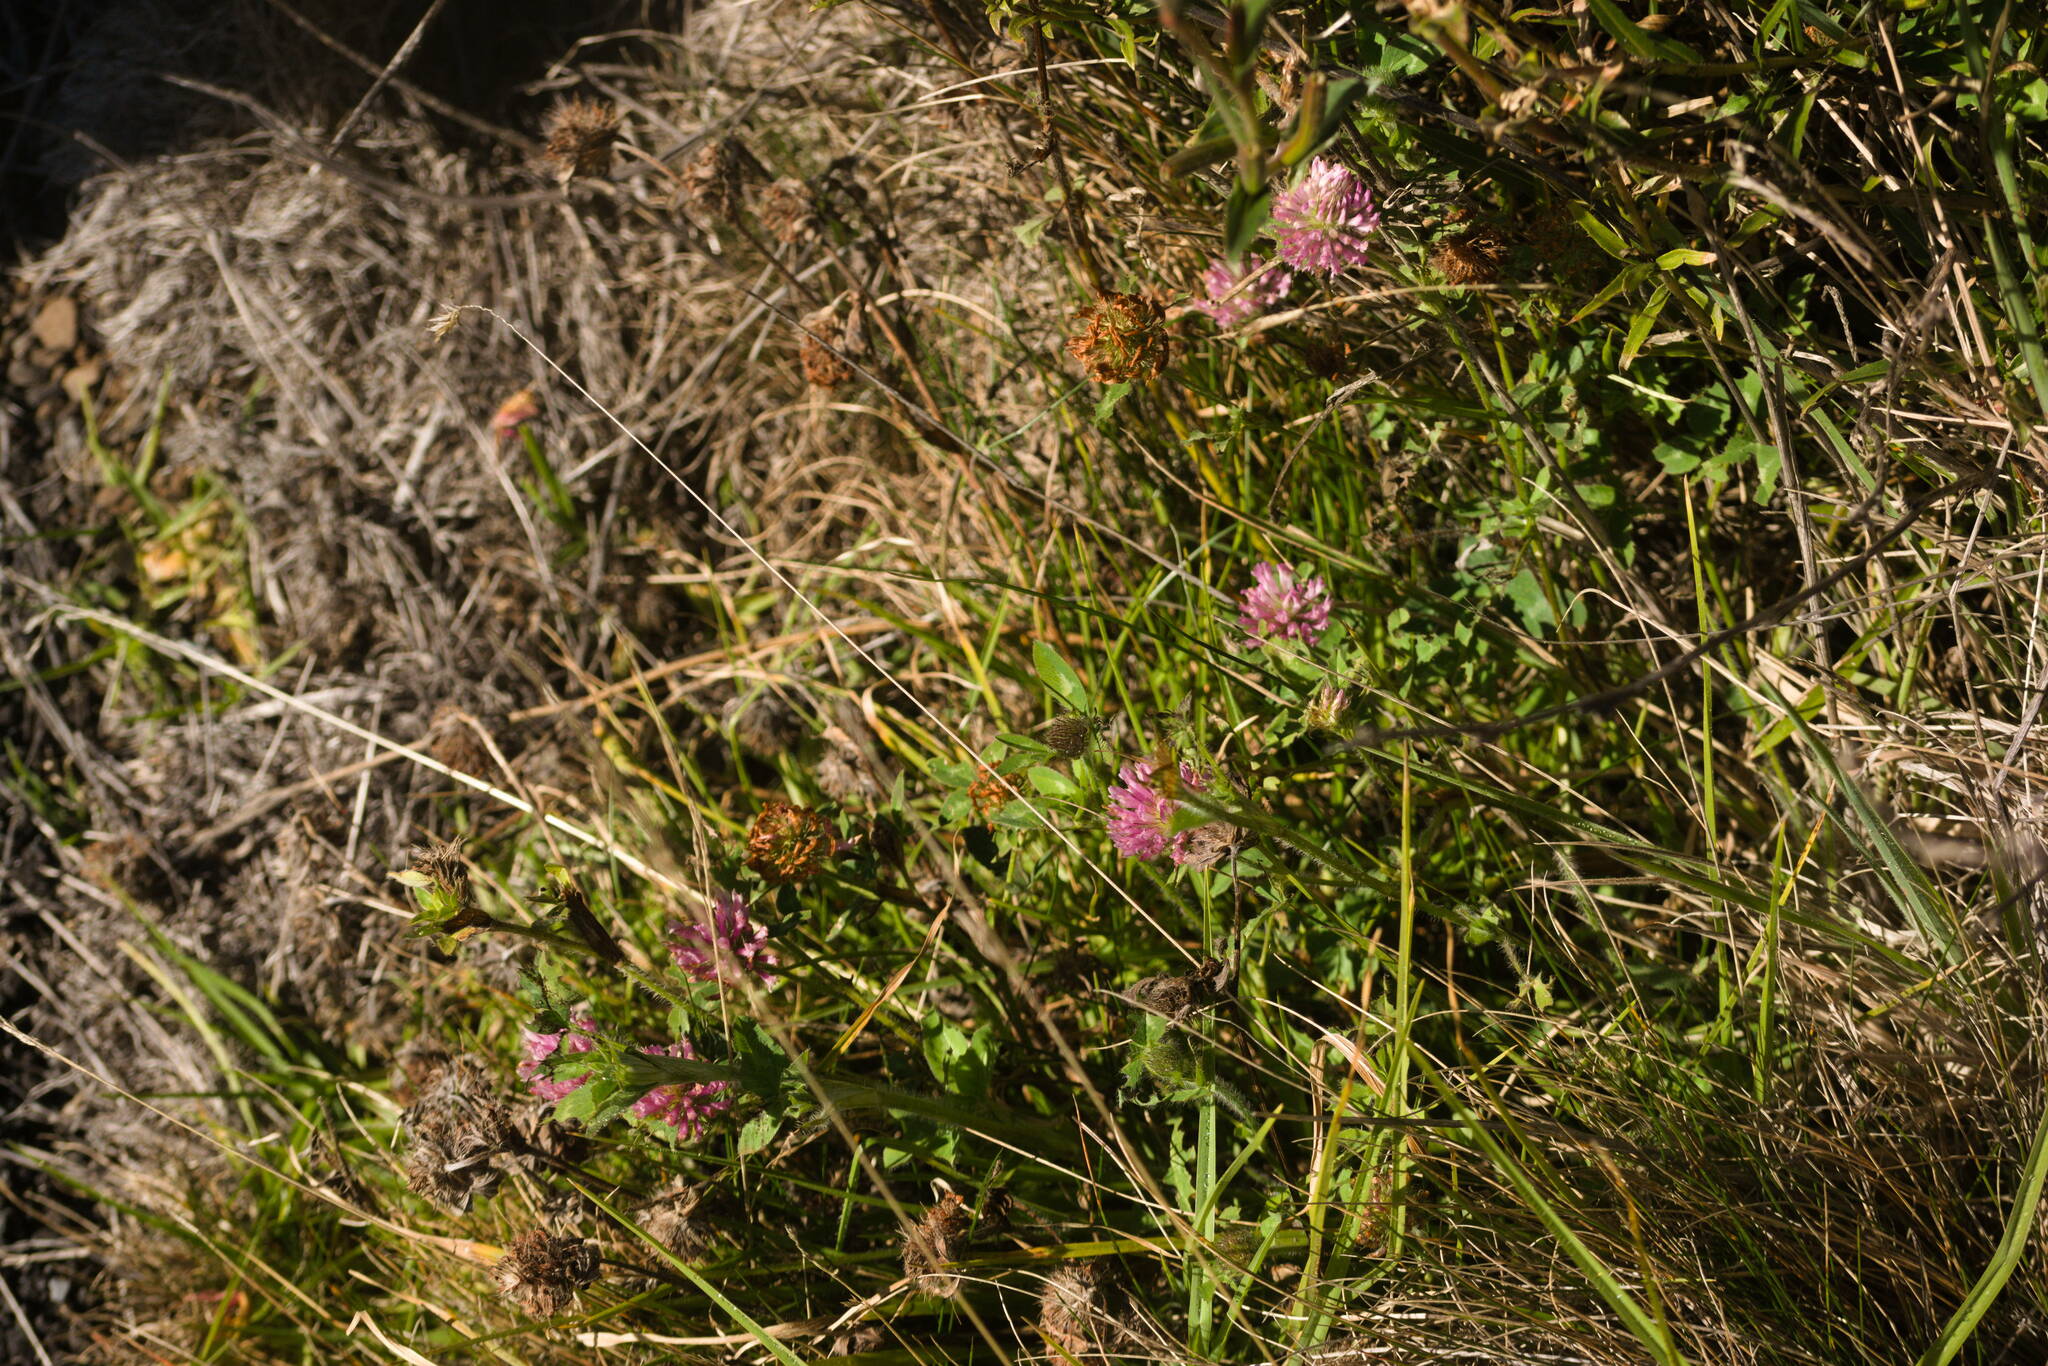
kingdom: Plantae
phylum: Tracheophyta
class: Magnoliopsida
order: Fabales
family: Fabaceae
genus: Trifolium
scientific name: Trifolium pratense
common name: Red clover
